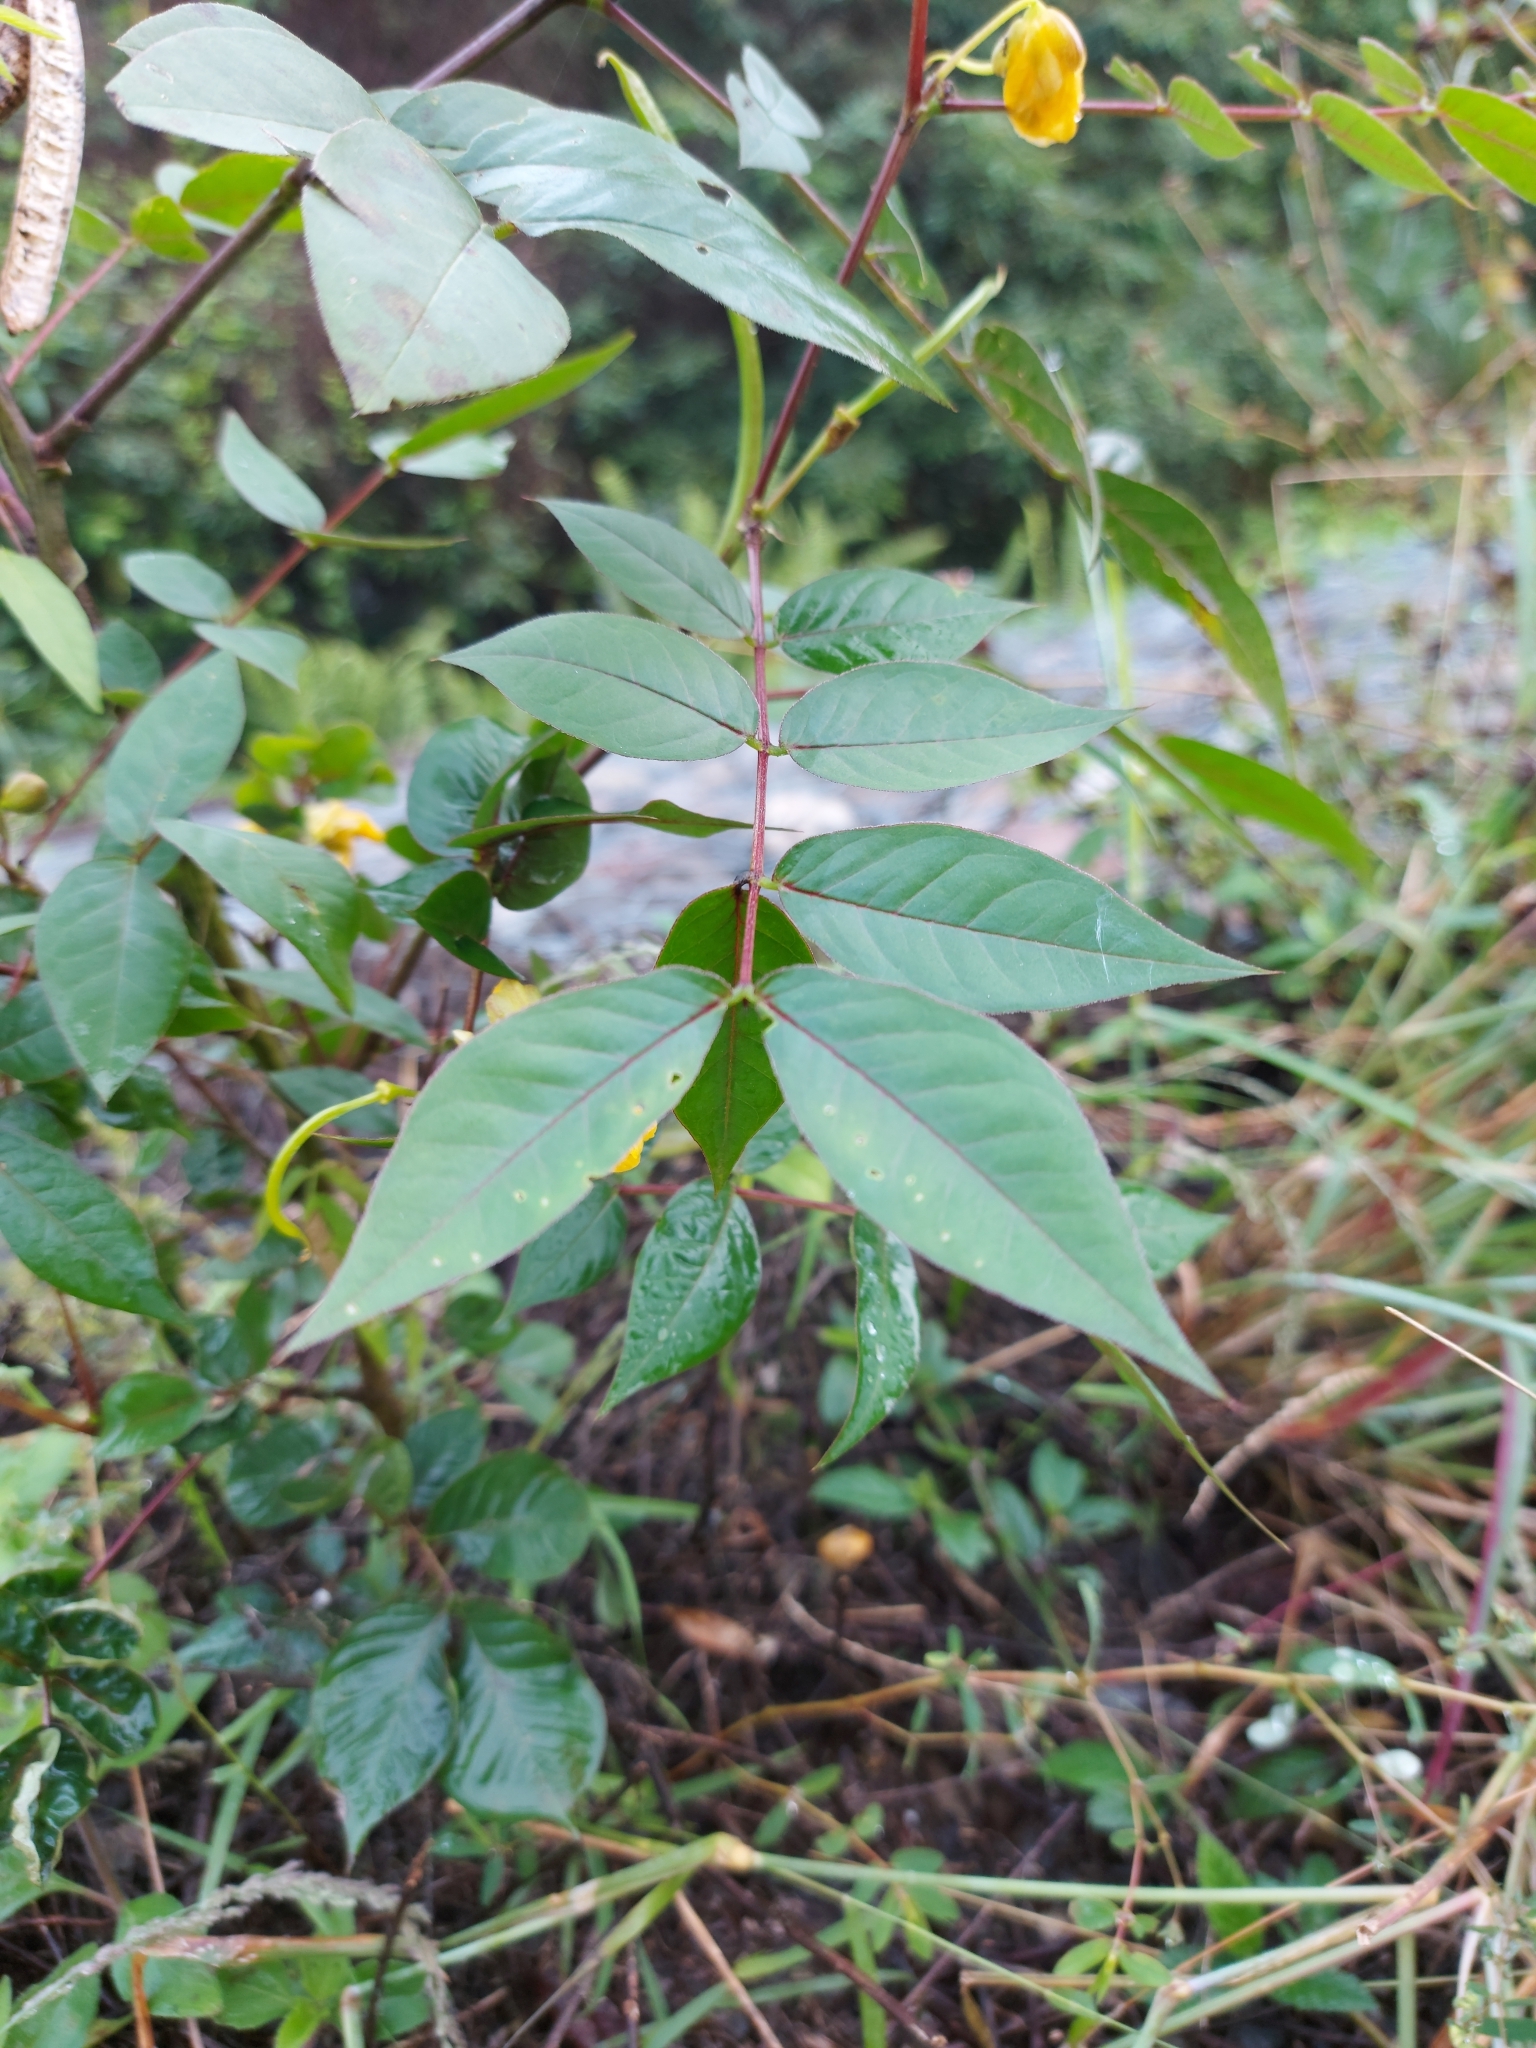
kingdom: Plantae
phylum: Tracheophyta
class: Magnoliopsida
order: Fabales
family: Fabaceae
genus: Senna
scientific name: Senna occidentalis
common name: Septicweed
